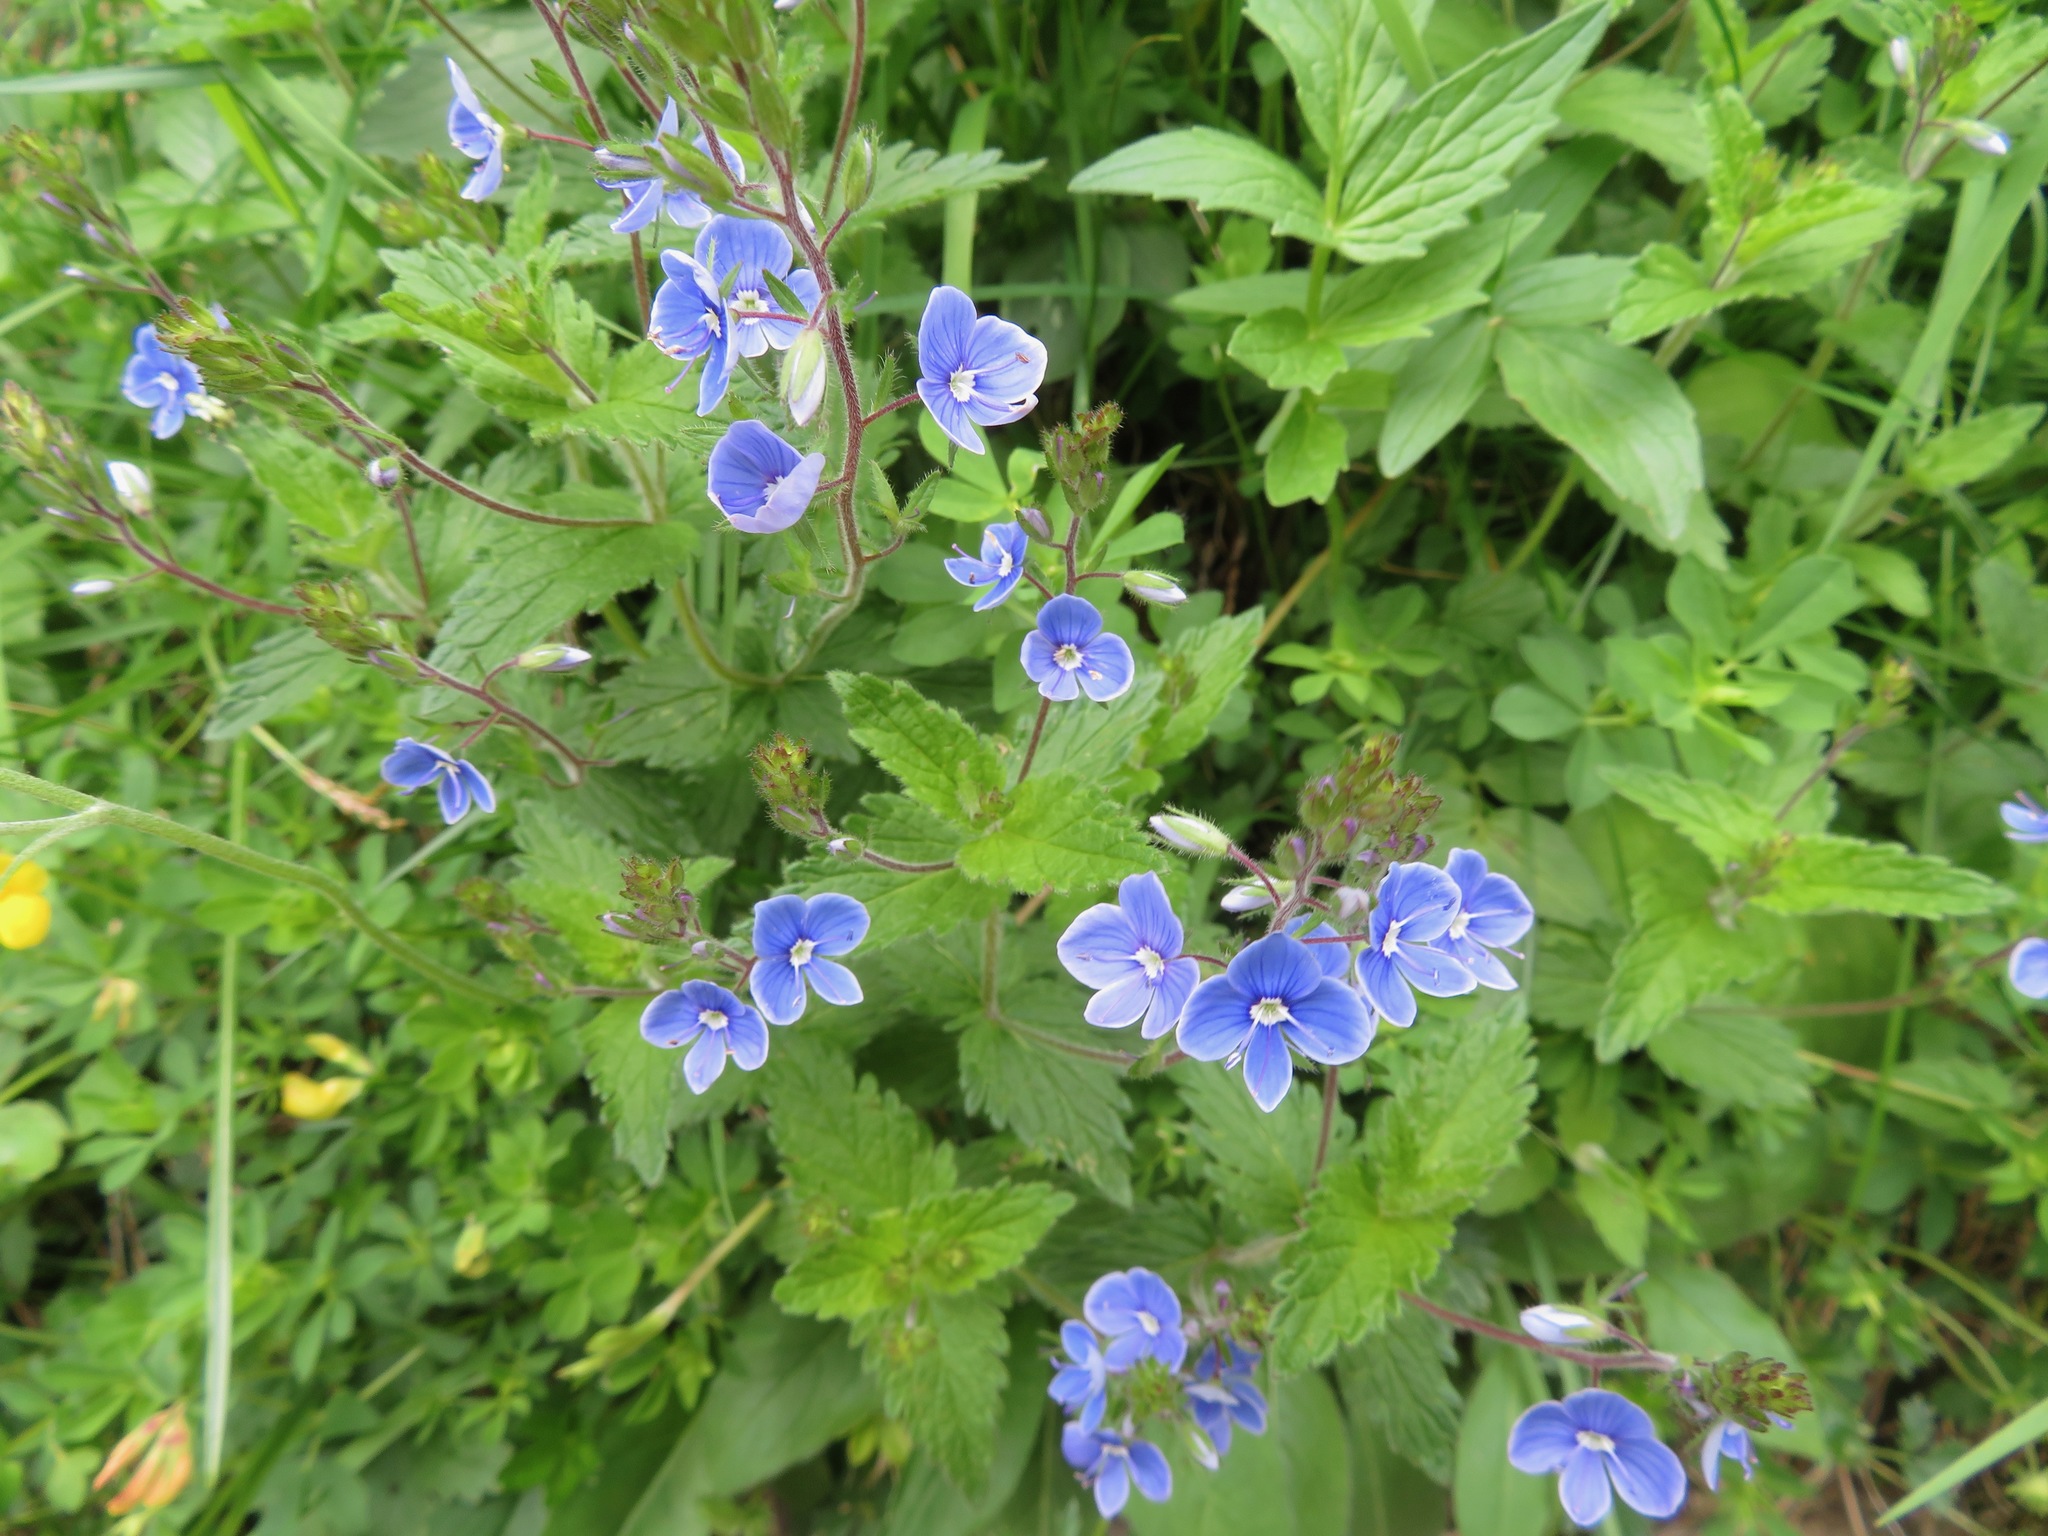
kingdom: Plantae
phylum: Tracheophyta
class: Magnoliopsida
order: Lamiales
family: Plantaginaceae
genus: Veronica
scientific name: Veronica chamaedrys
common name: Germander speedwell
